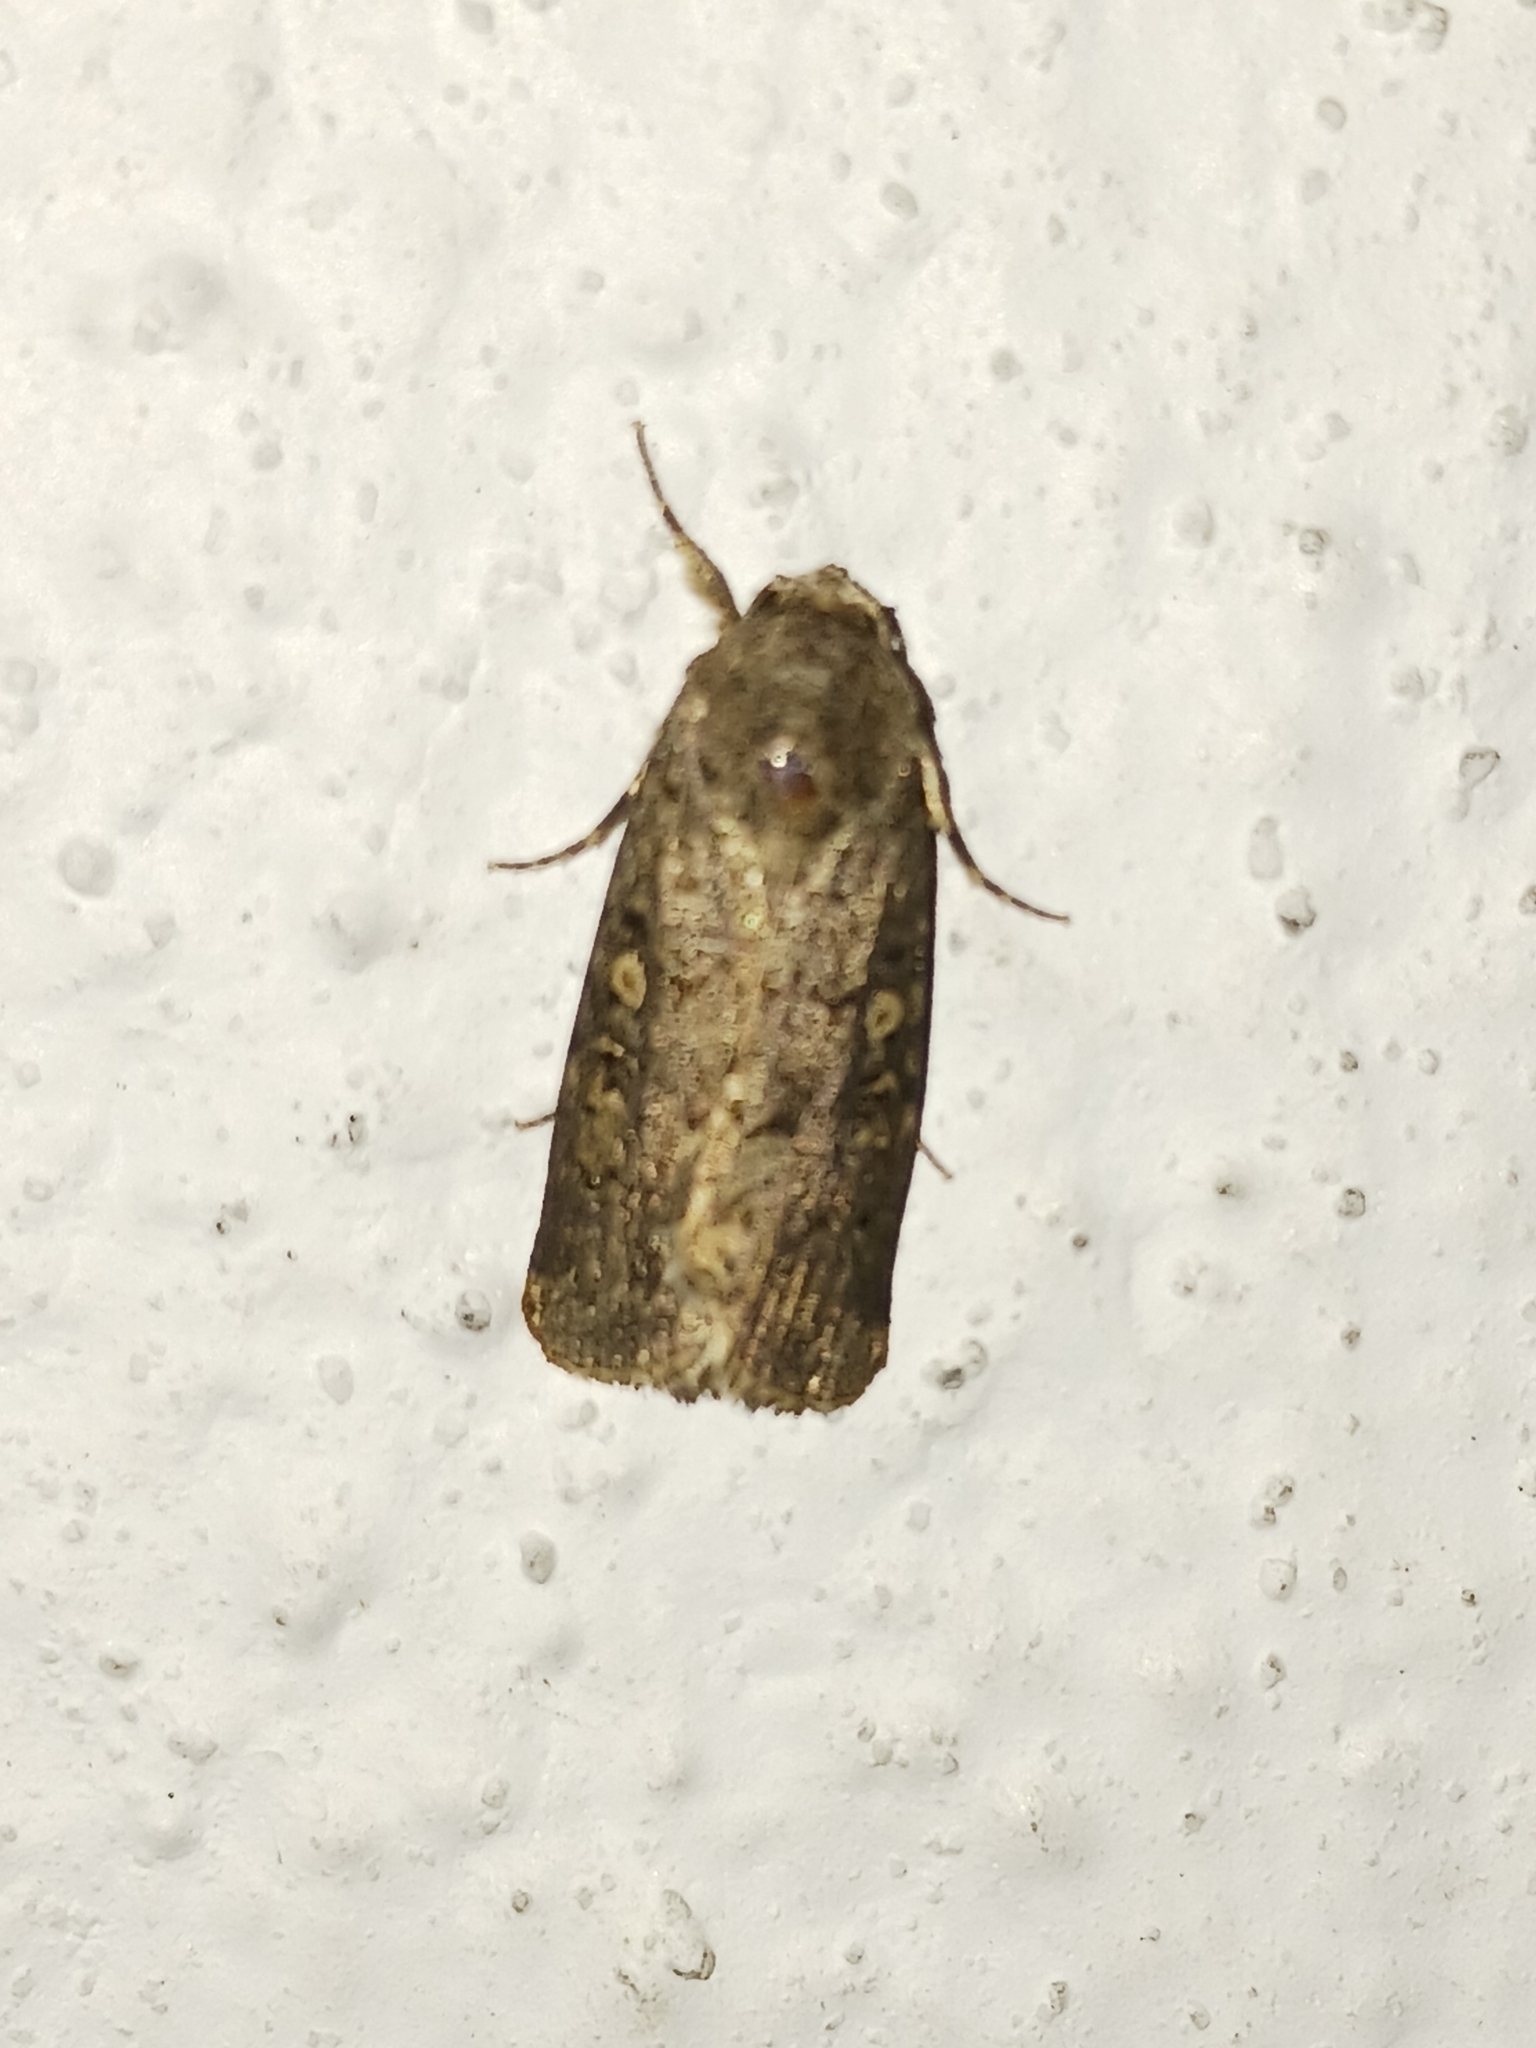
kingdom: Animalia
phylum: Arthropoda
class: Insecta
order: Lepidoptera
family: Noctuidae
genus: Spodoptera
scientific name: Spodoptera cilium
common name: Dark mottled willow
